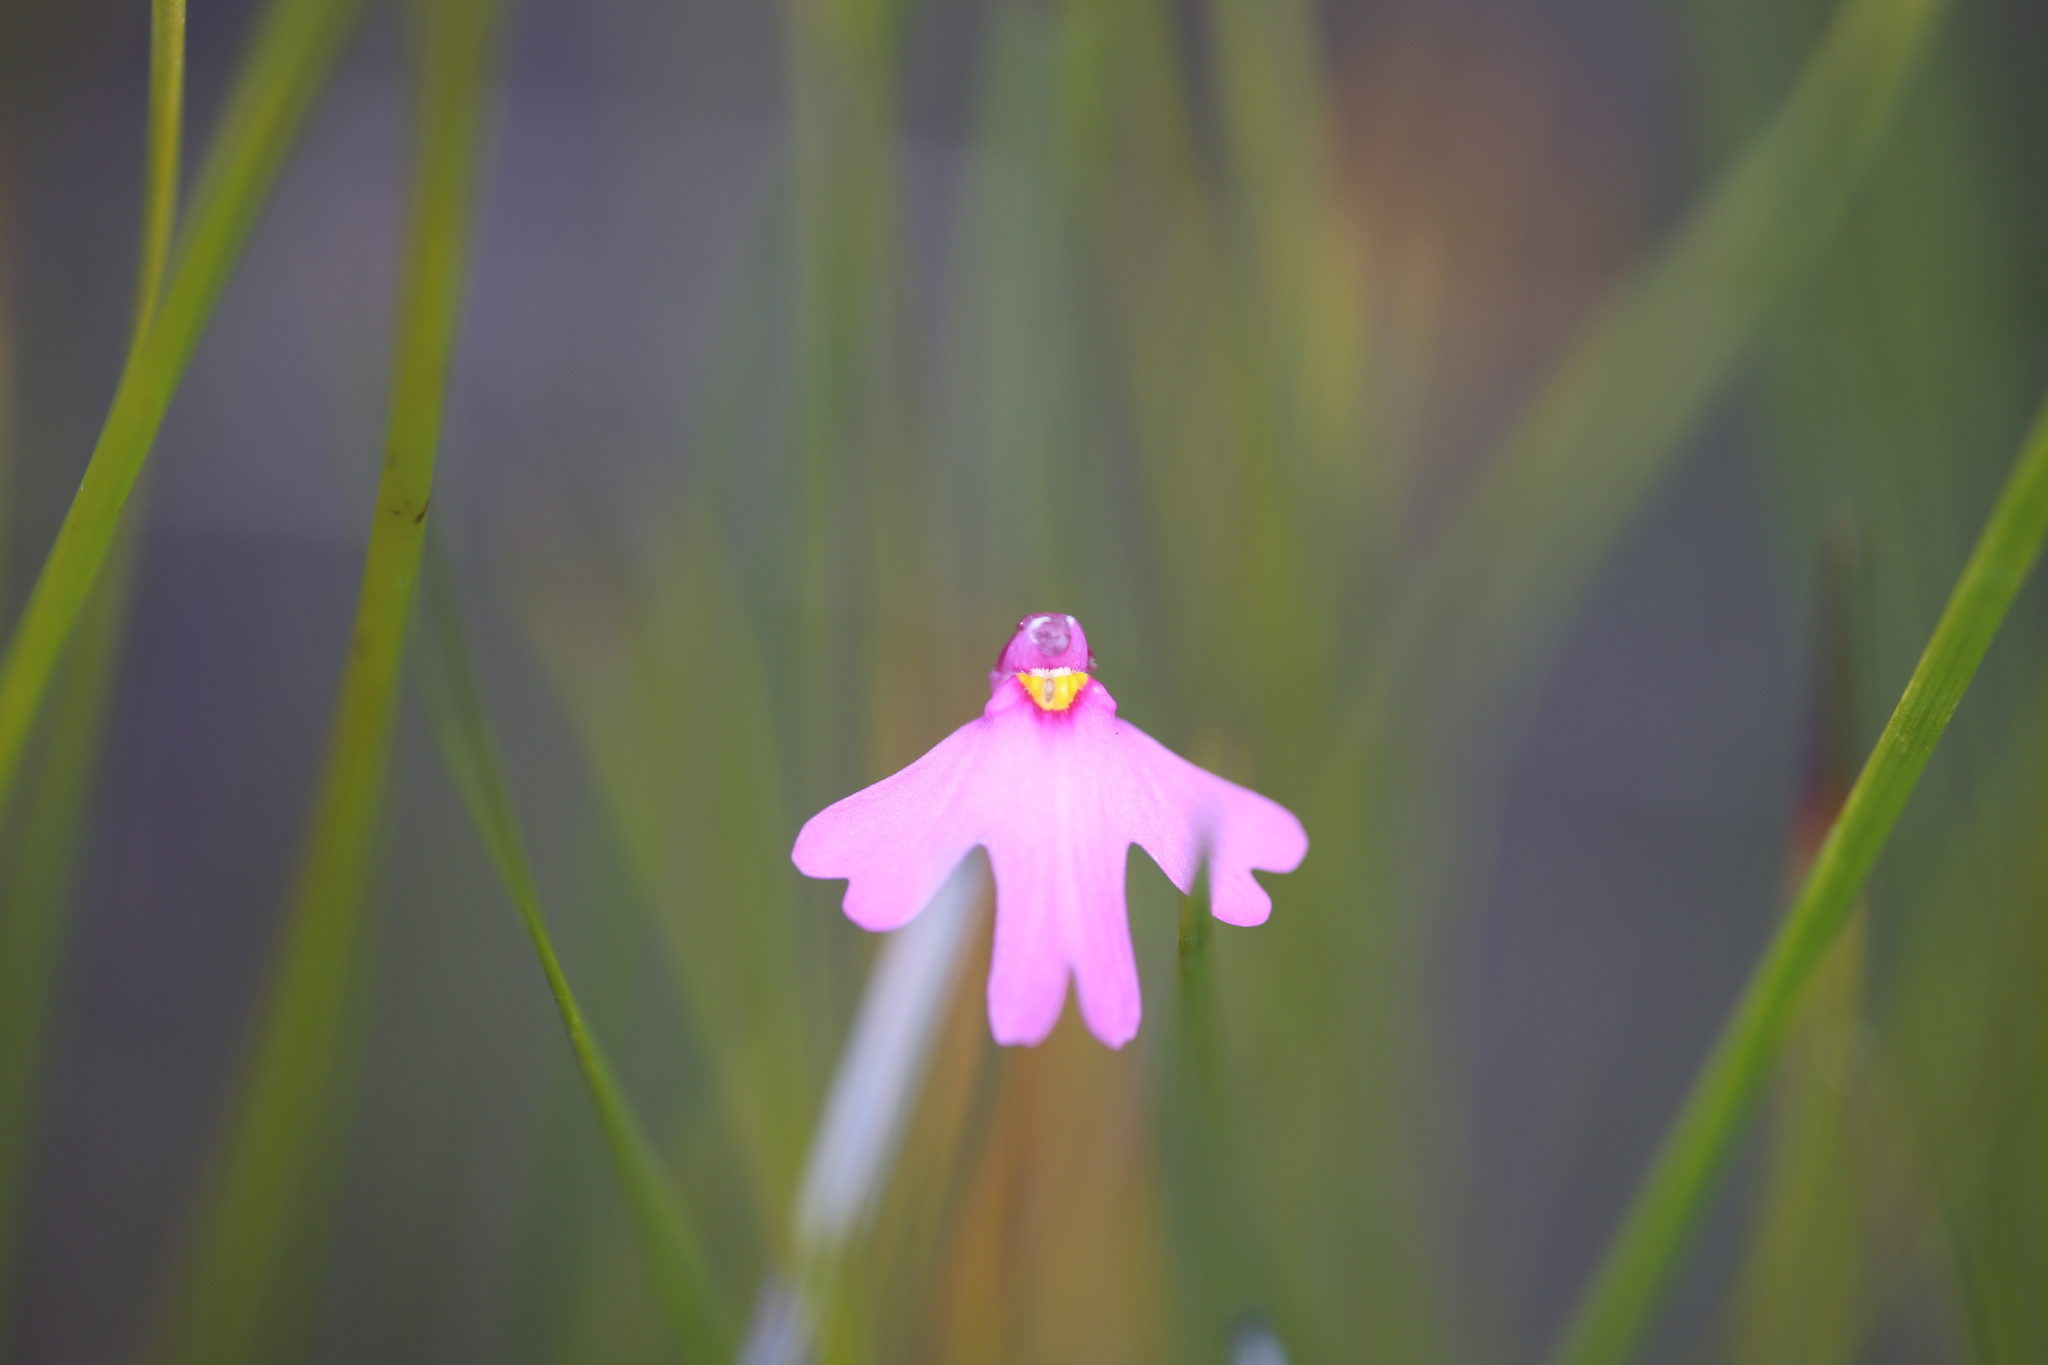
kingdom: Plantae
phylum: Tracheophyta
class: Magnoliopsida
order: Lamiales
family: Lentibulariaceae
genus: Utricularia
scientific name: Utricularia multifida
